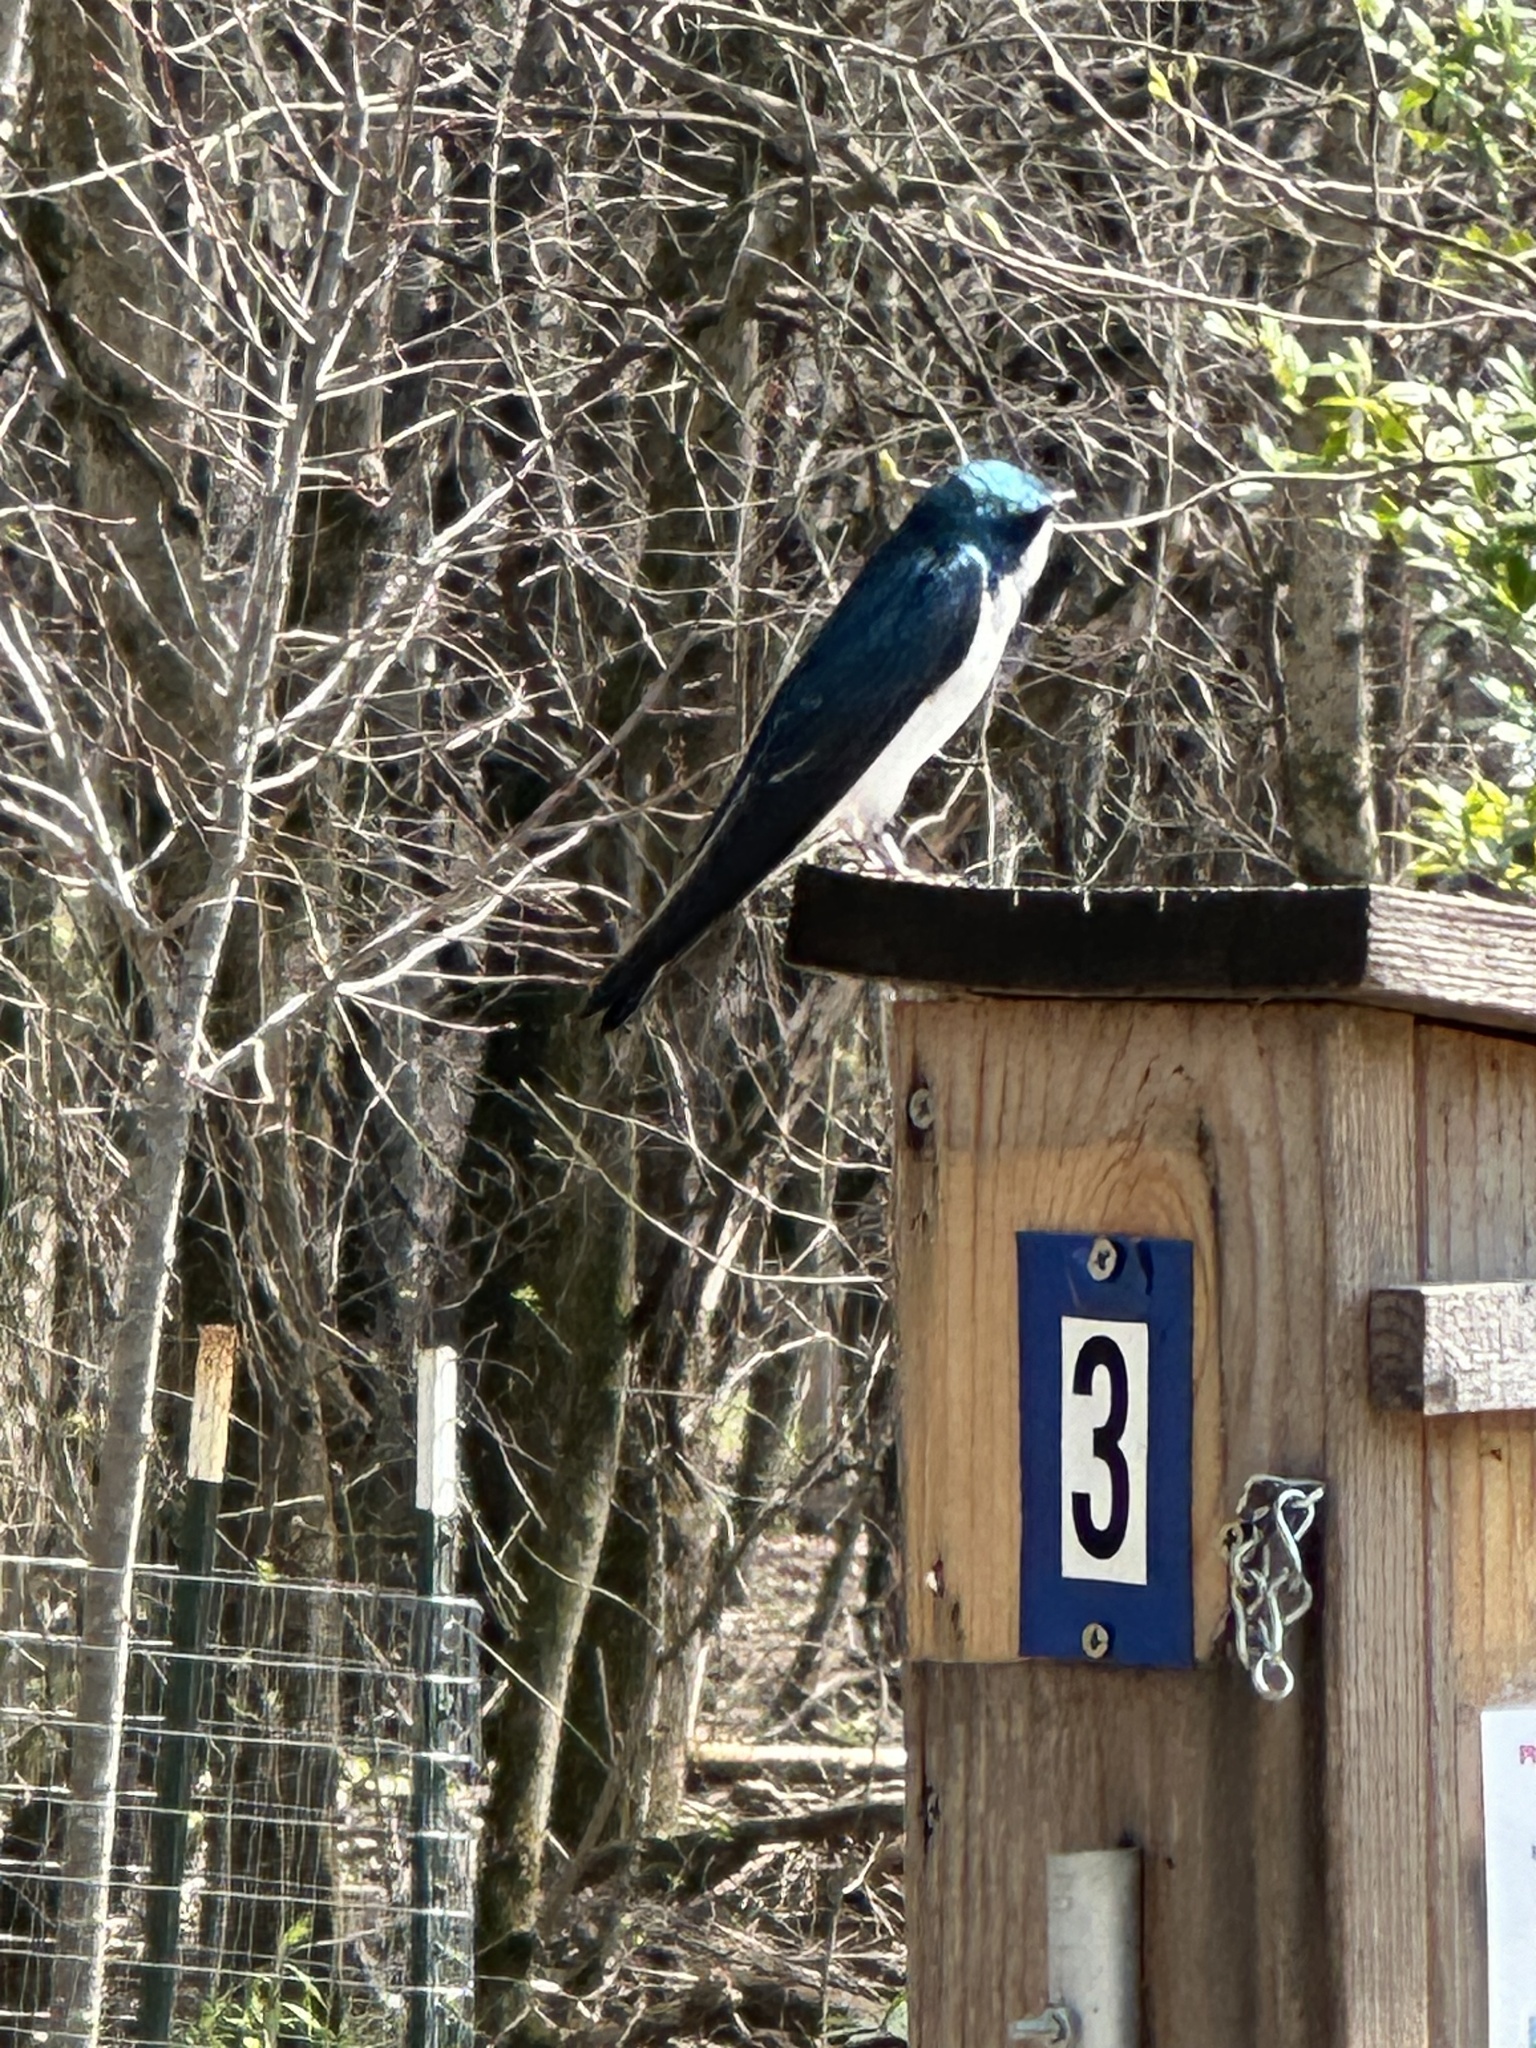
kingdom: Animalia
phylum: Chordata
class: Aves
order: Passeriformes
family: Hirundinidae
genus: Tachycineta
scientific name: Tachycineta bicolor
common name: Tree swallow
